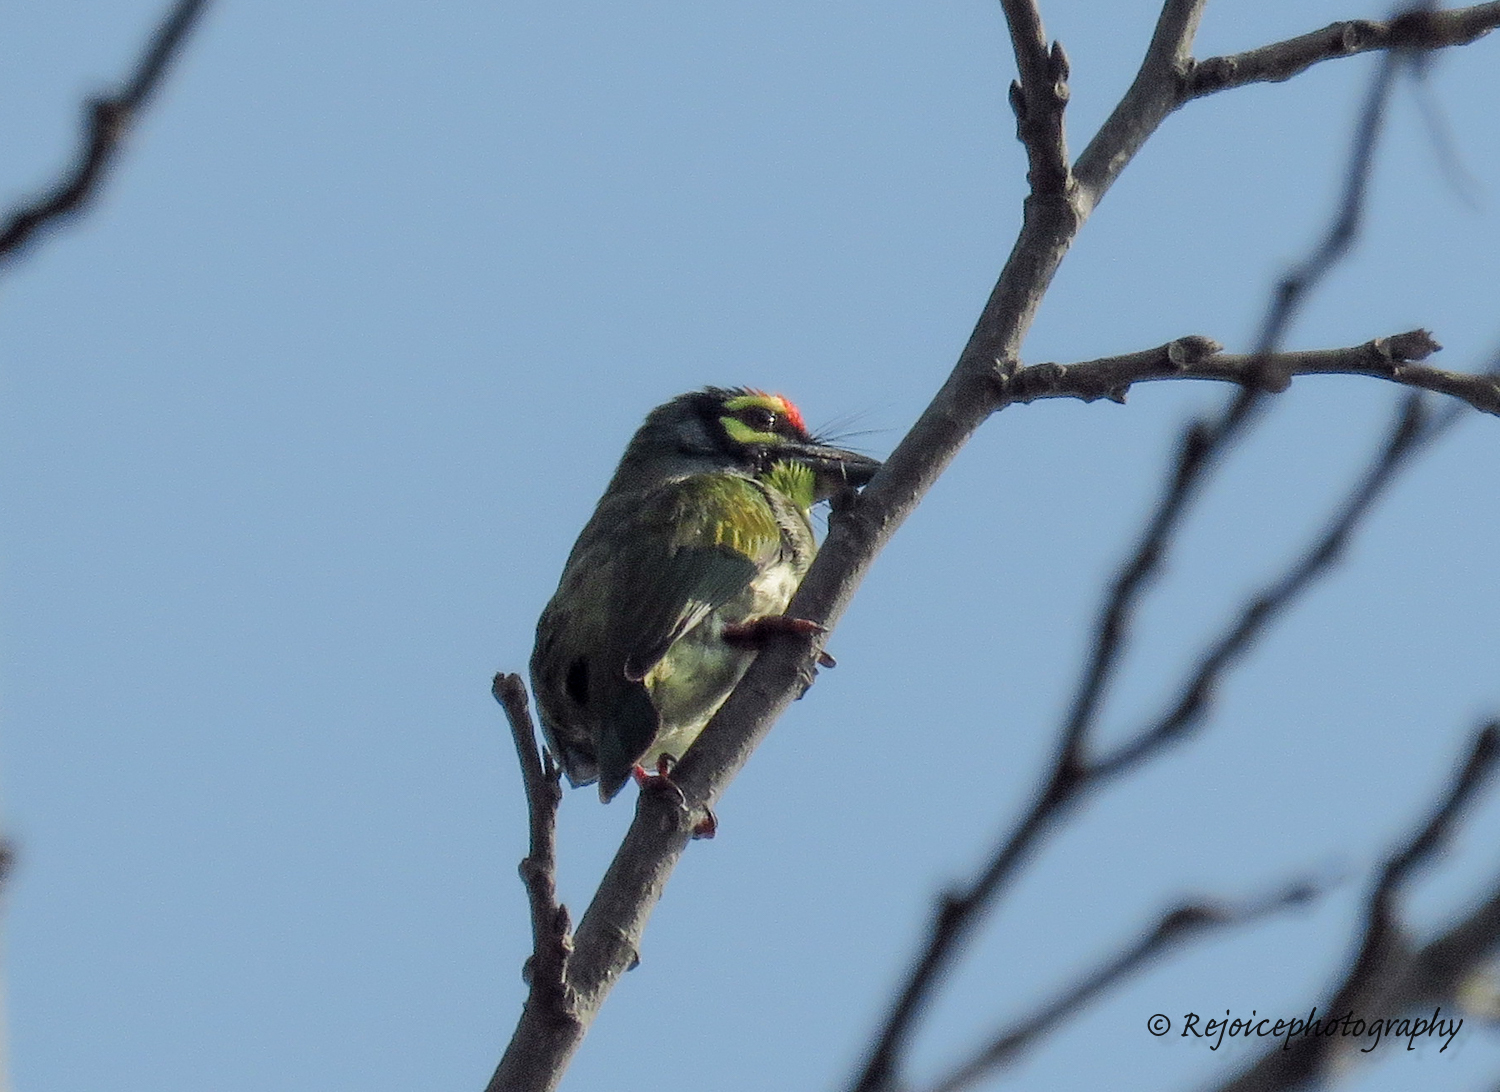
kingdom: Animalia
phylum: Chordata
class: Aves
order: Piciformes
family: Megalaimidae
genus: Psilopogon
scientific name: Psilopogon haemacephalus
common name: Coppersmith barbet
